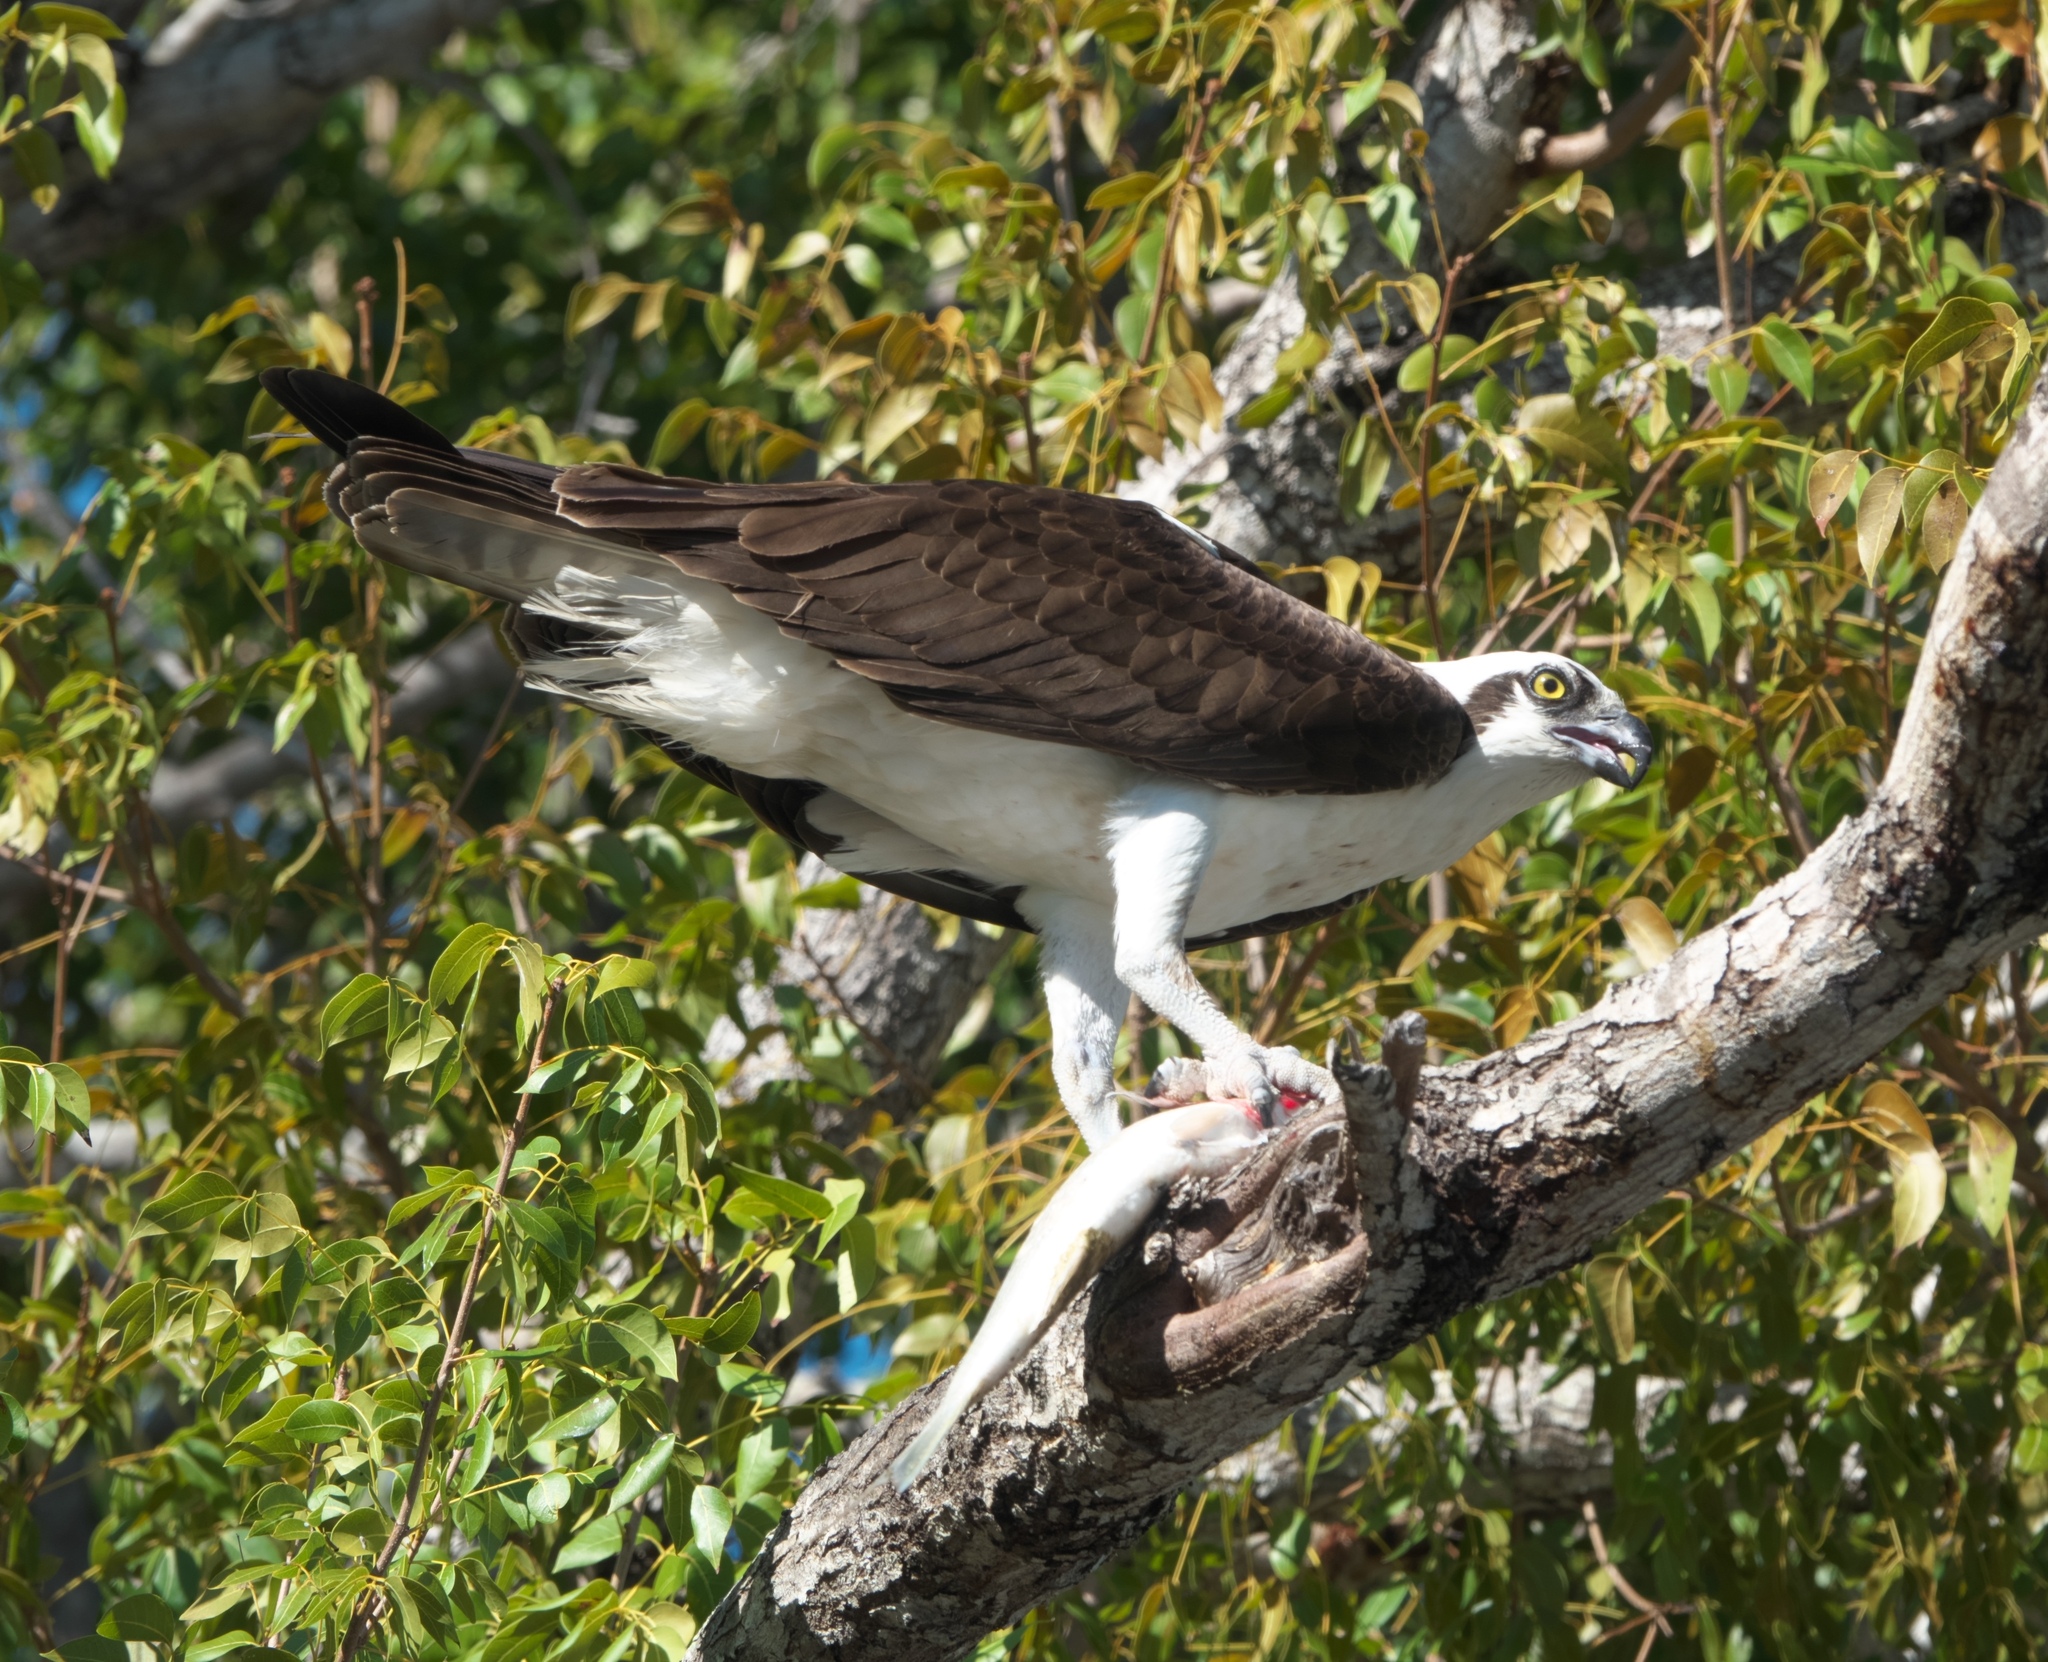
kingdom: Animalia
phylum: Chordata
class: Aves
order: Accipitriformes
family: Pandionidae
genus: Pandion
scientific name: Pandion haliaetus
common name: Osprey
